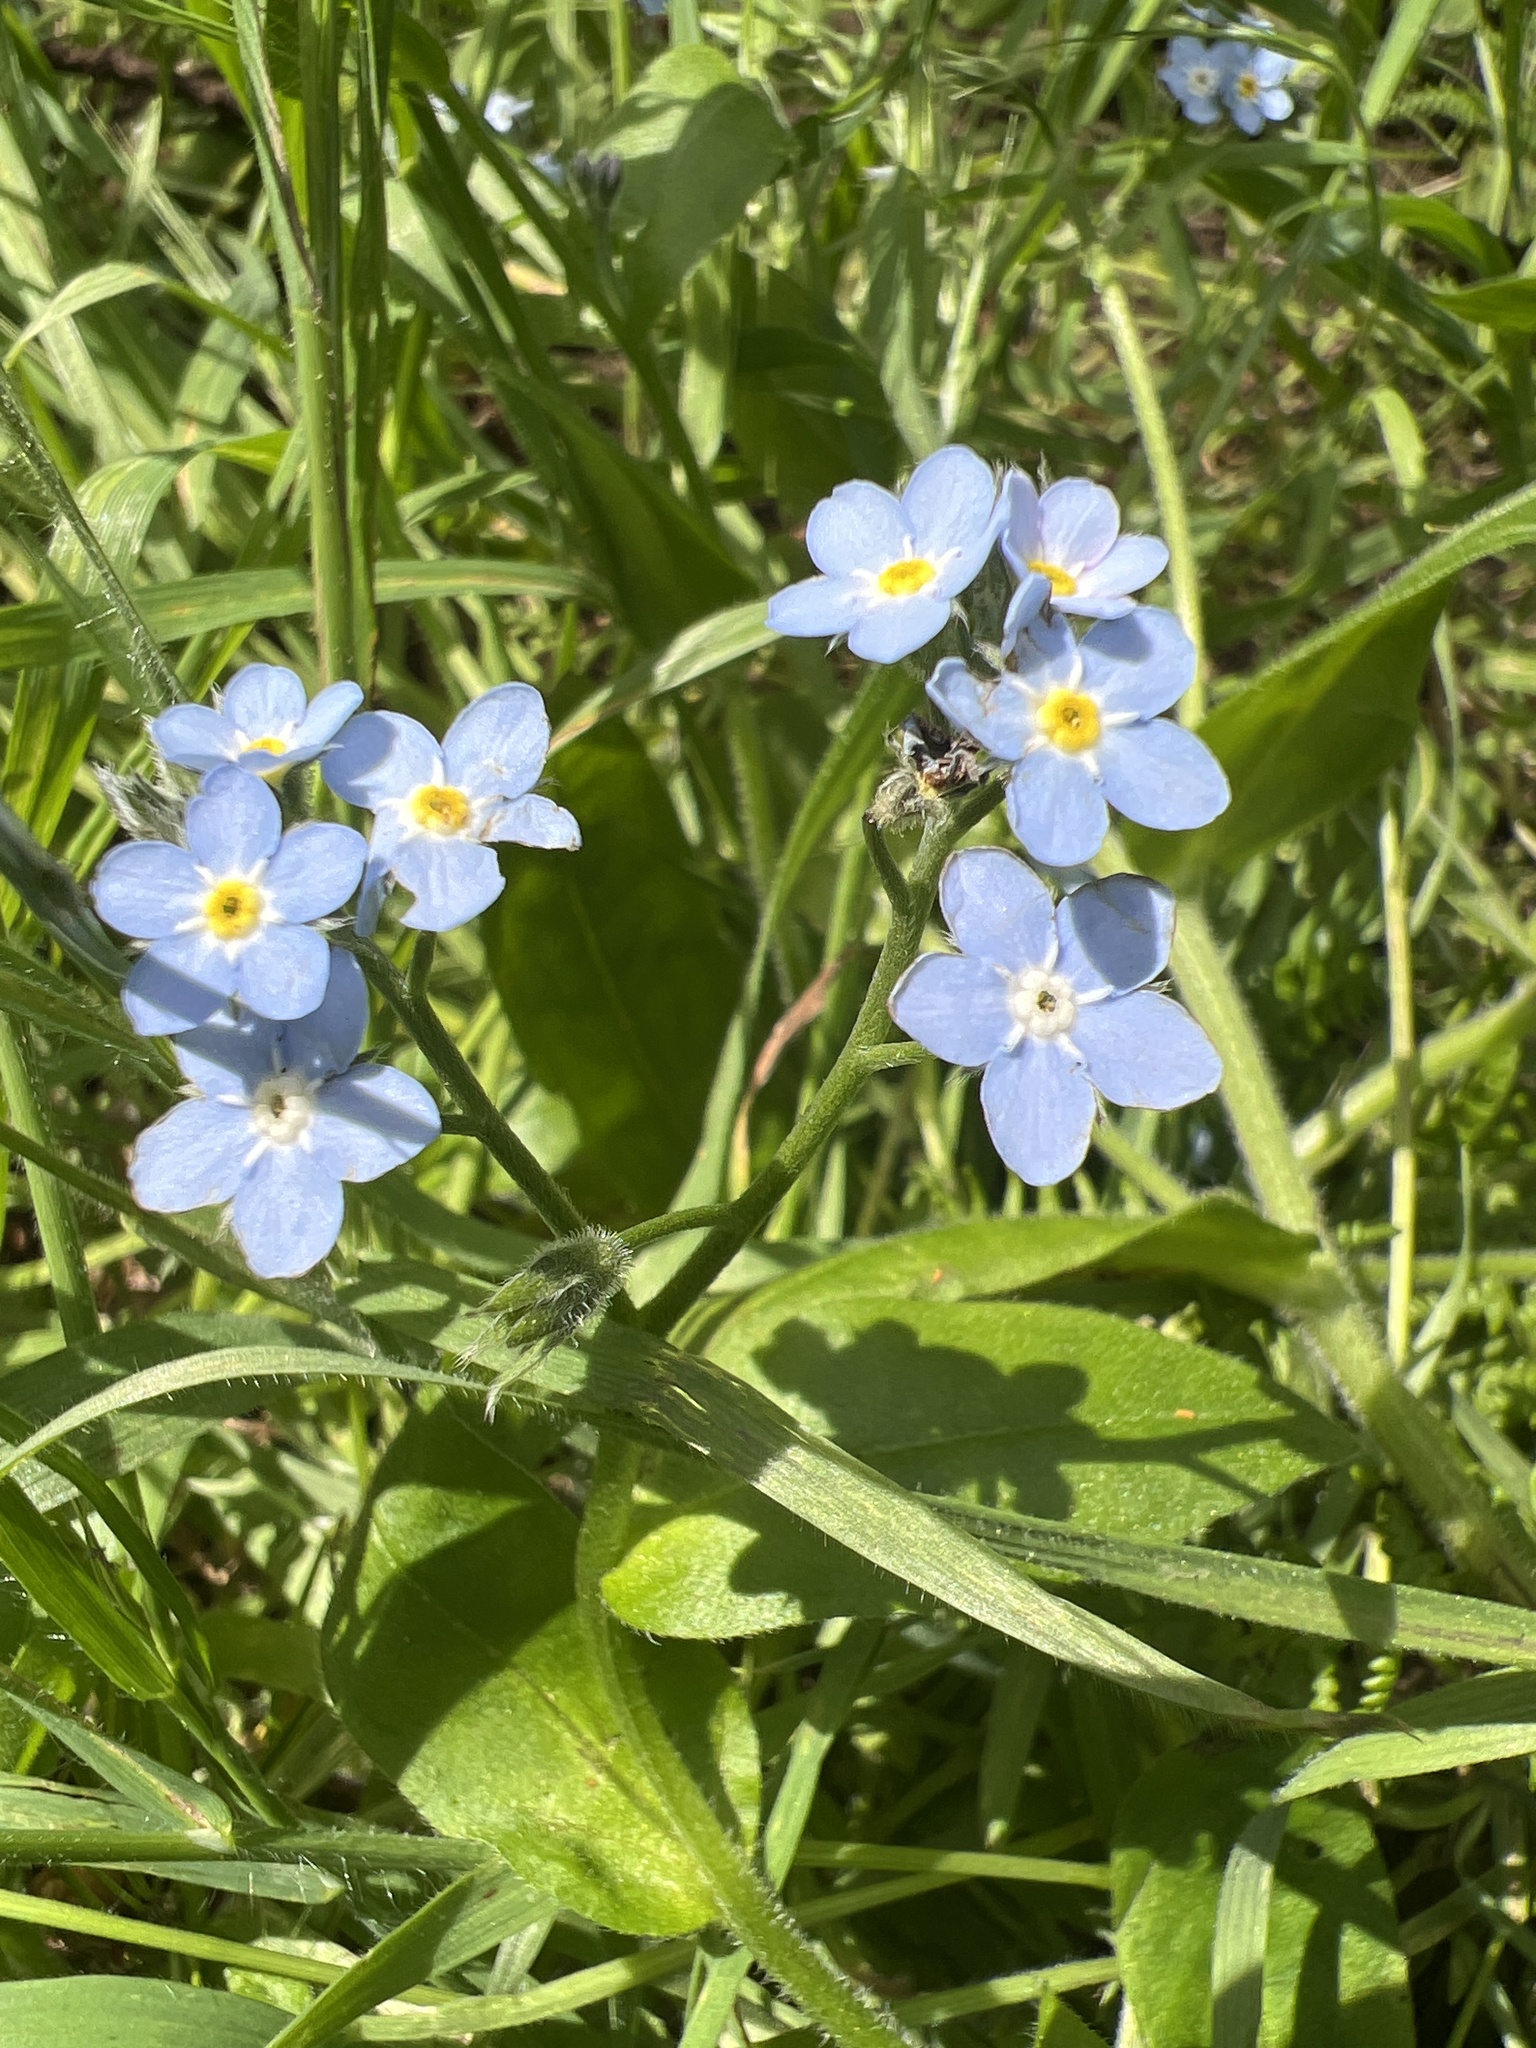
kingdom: Plantae
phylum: Tracheophyta
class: Magnoliopsida
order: Boraginales
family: Boraginaceae
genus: Myosotis
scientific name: Myosotis latifolia
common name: Broadleaf forget-me-not
